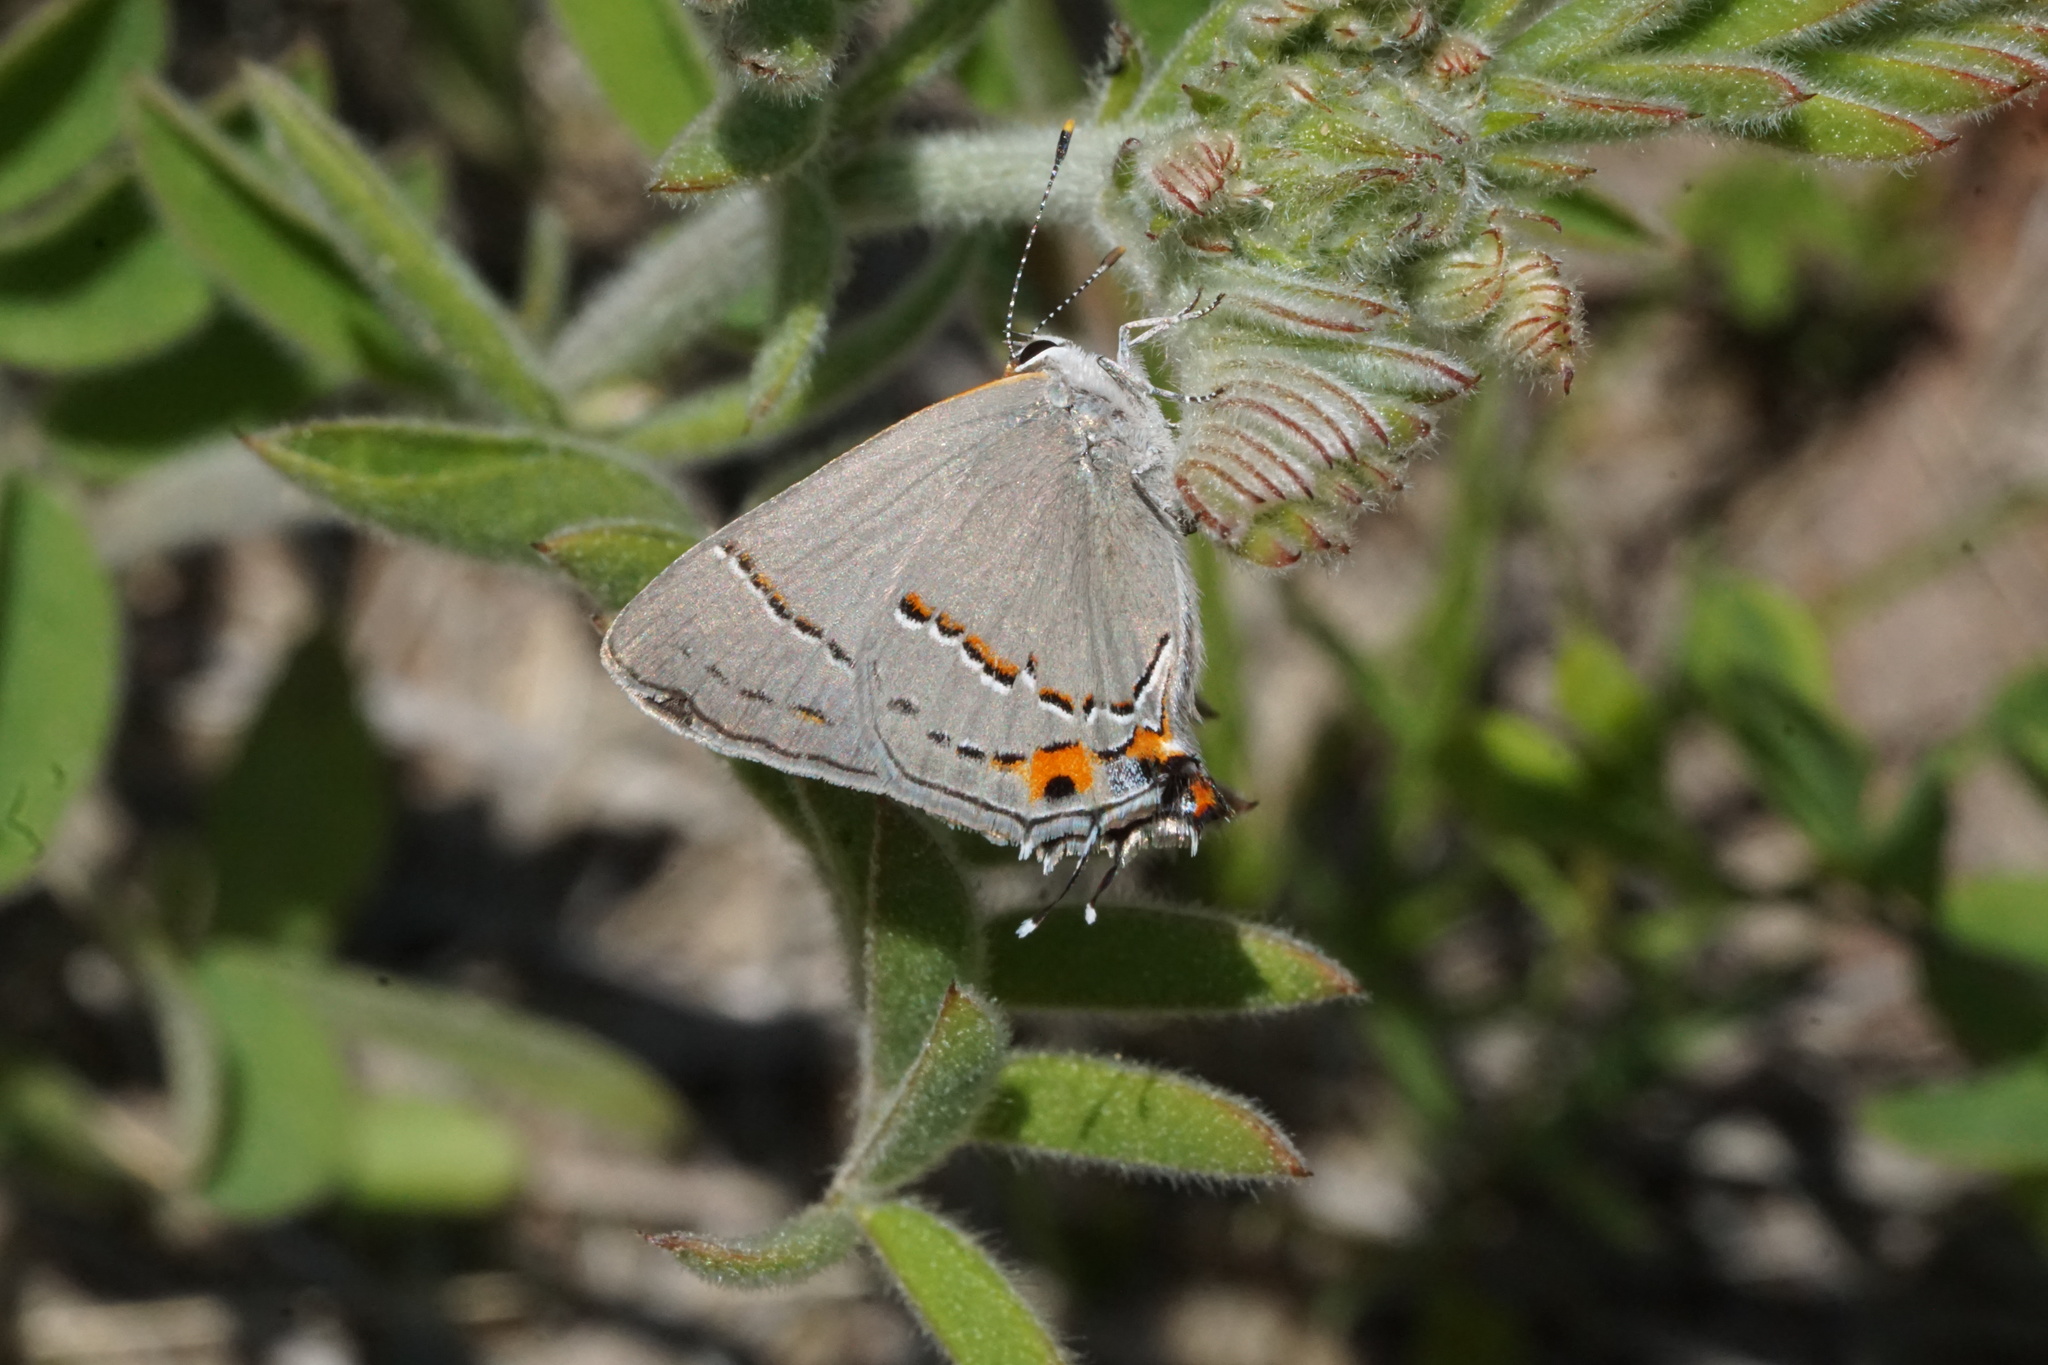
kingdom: Animalia
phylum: Arthropoda
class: Insecta
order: Lepidoptera
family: Lycaenidae
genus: Strymon
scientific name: Strymon melinus
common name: Gray hairstreak
